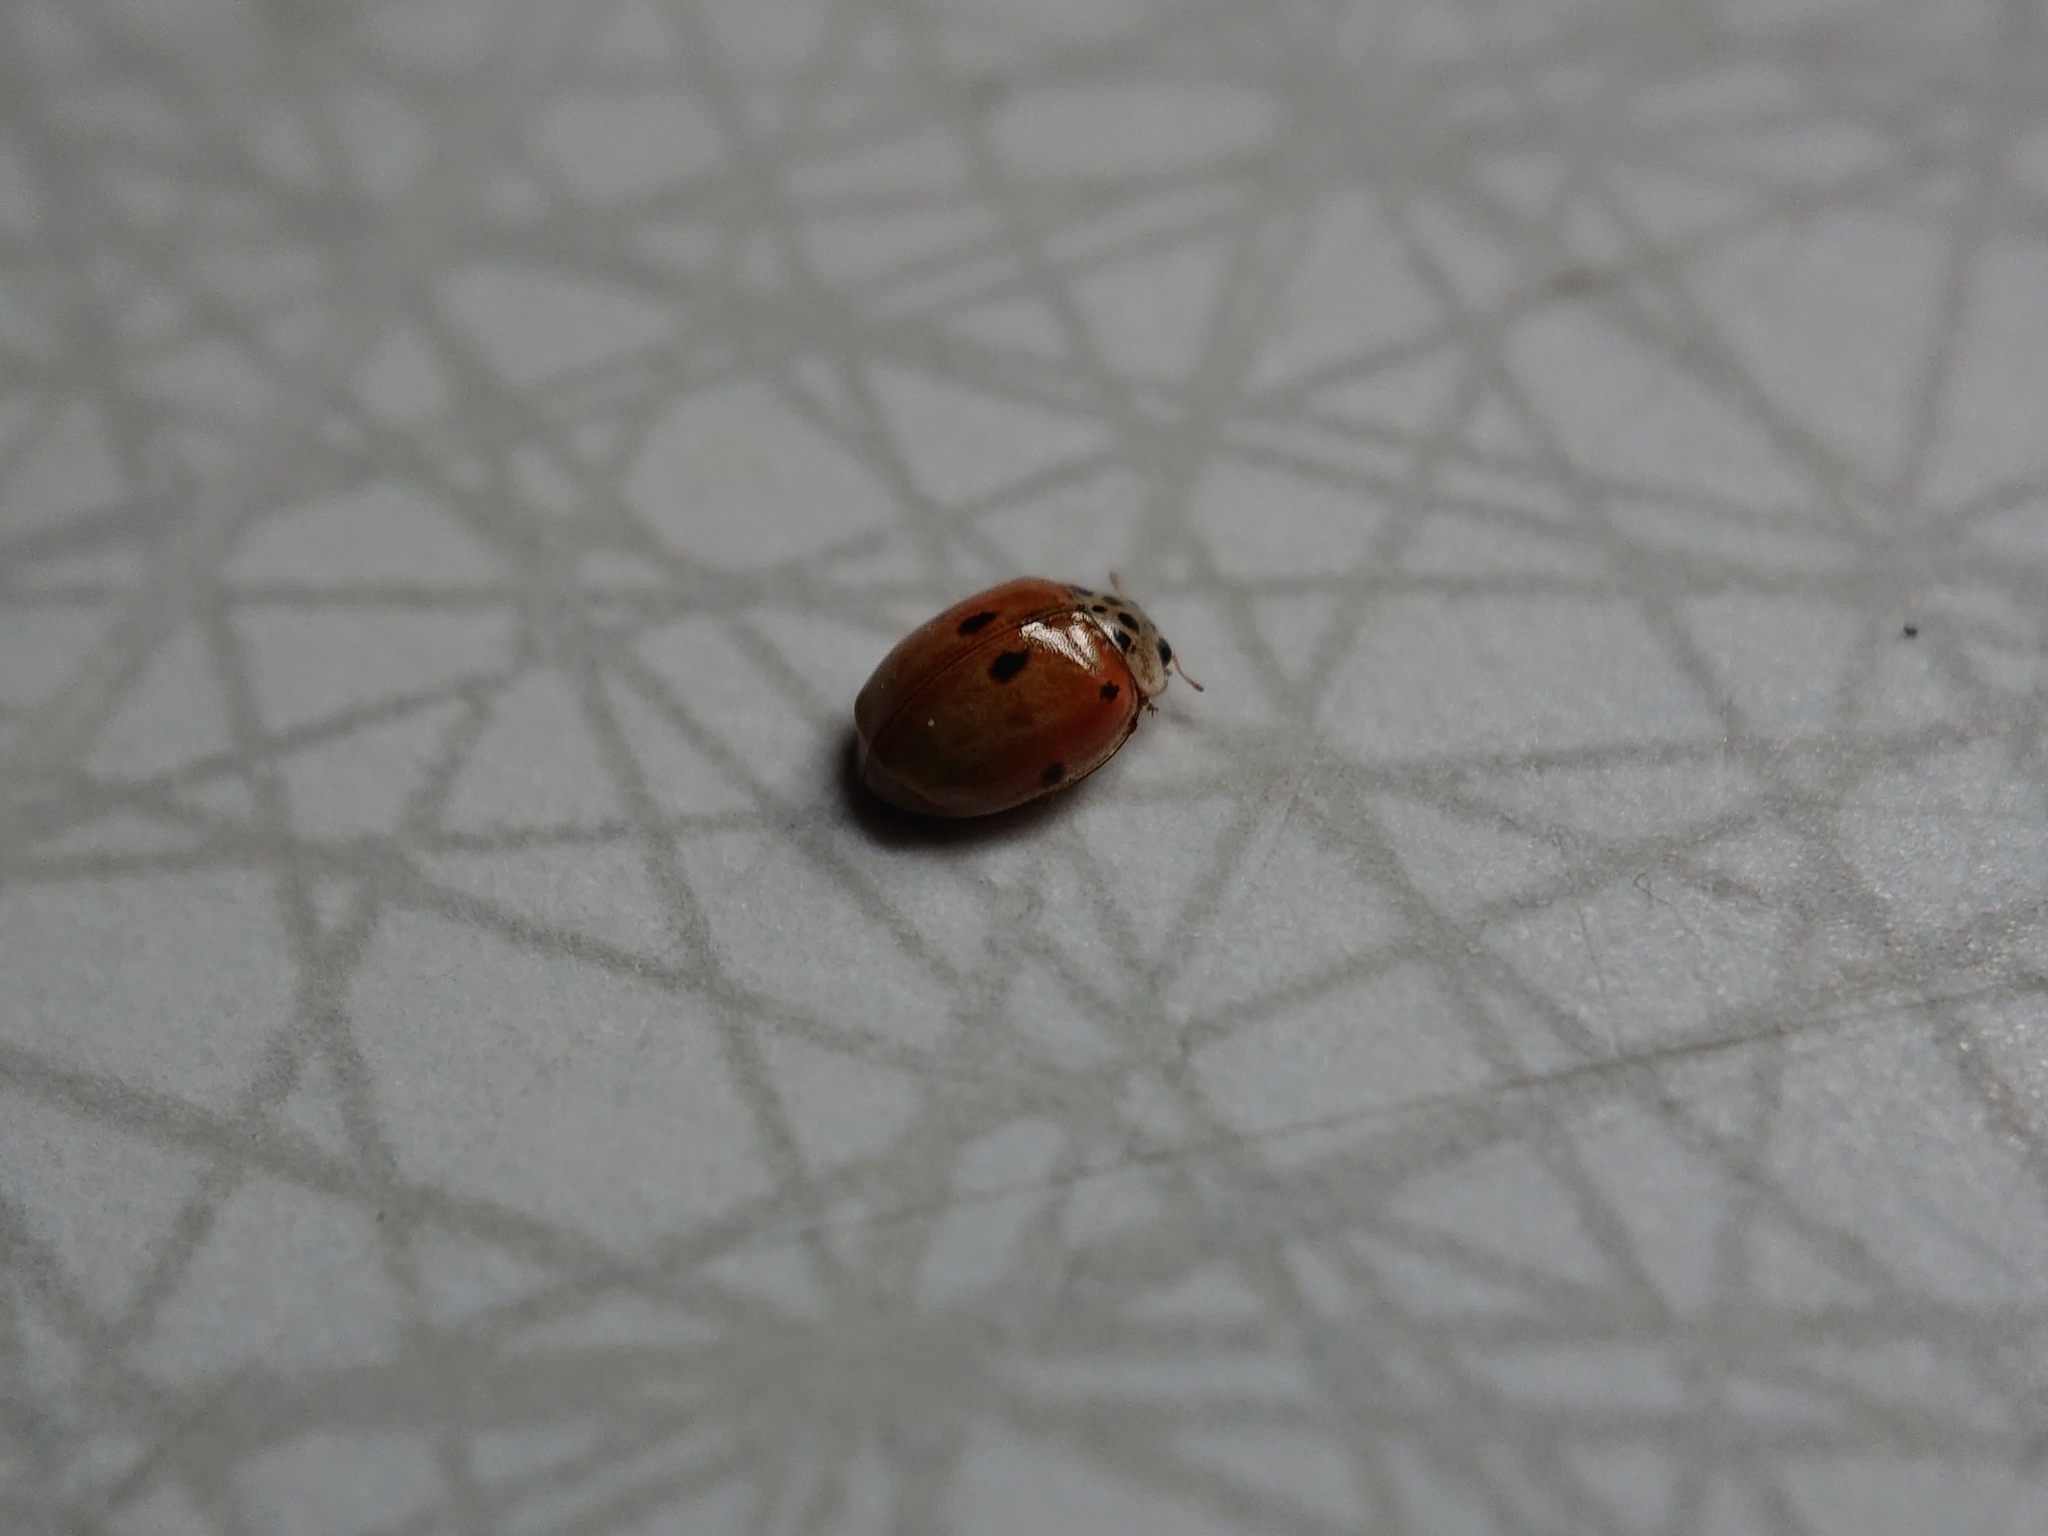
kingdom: Animalia
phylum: Arthropoda
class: Insecta
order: Coleoptera
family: Coccinellidae
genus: Adalia
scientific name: Adalia decempunctata
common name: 10-spot ladybird
